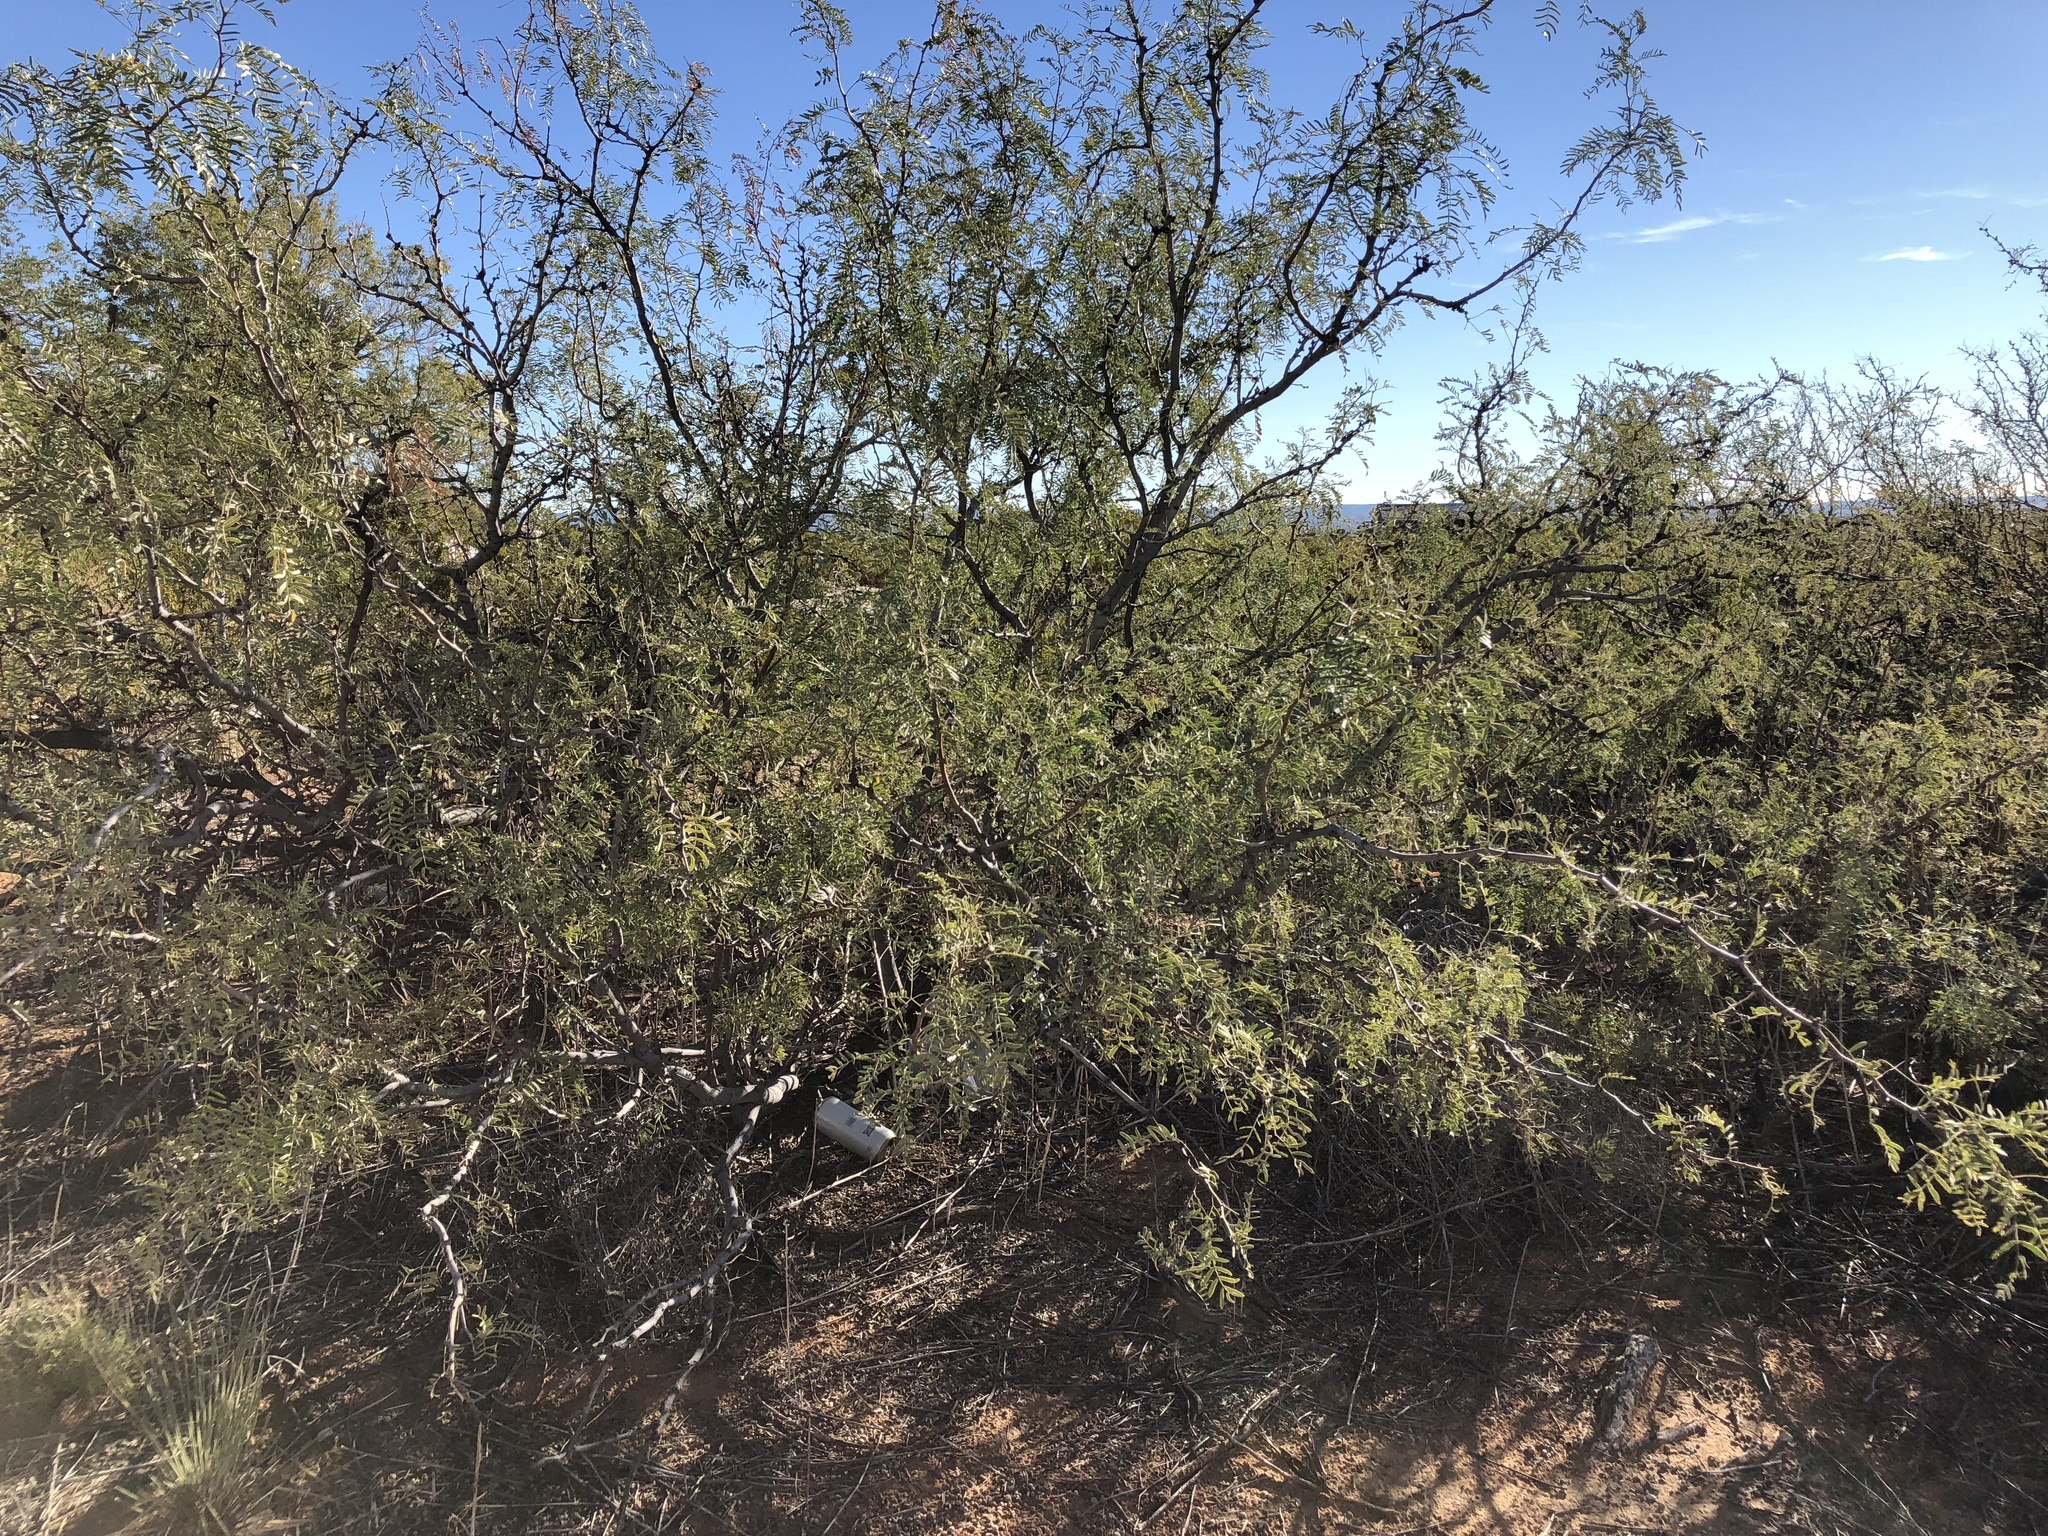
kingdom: Plantae
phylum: Tracheophyta
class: Magnoliopsida
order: Fabales
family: Fabaceae
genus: Prosopis
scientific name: Prosopis glandulosa
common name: Honey mesquite
